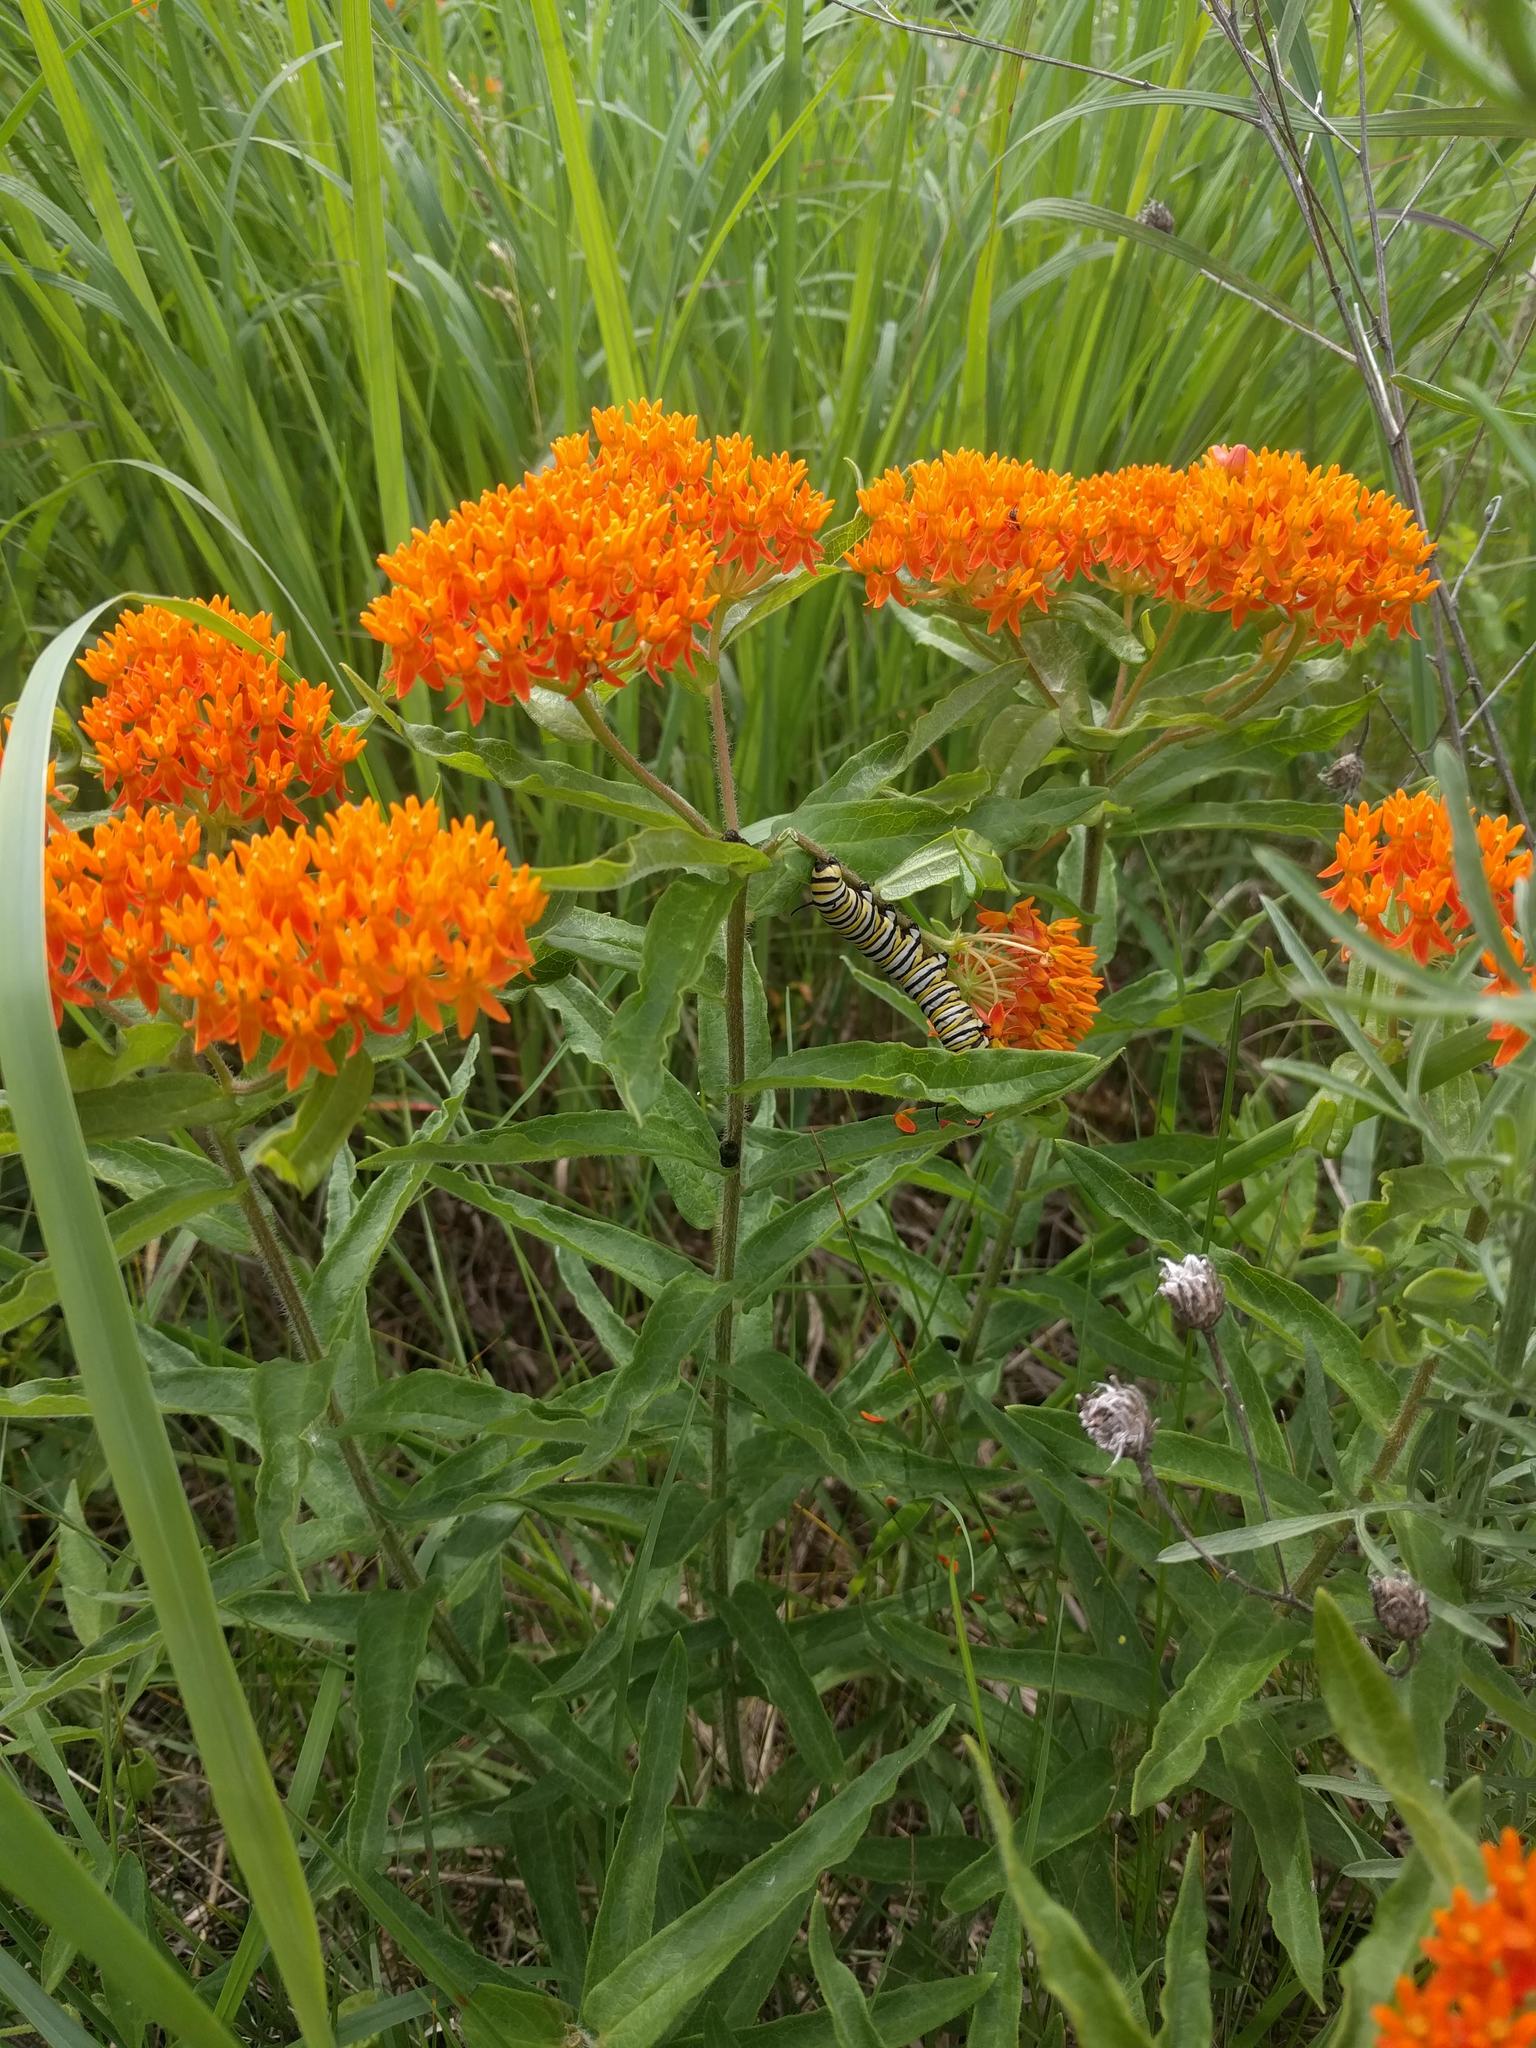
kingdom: Animalia
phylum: Arthropoda
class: Insecta
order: Lepidoptera
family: Nymphalidae
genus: Danaus
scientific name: Danaus plexippus
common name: Monarch
